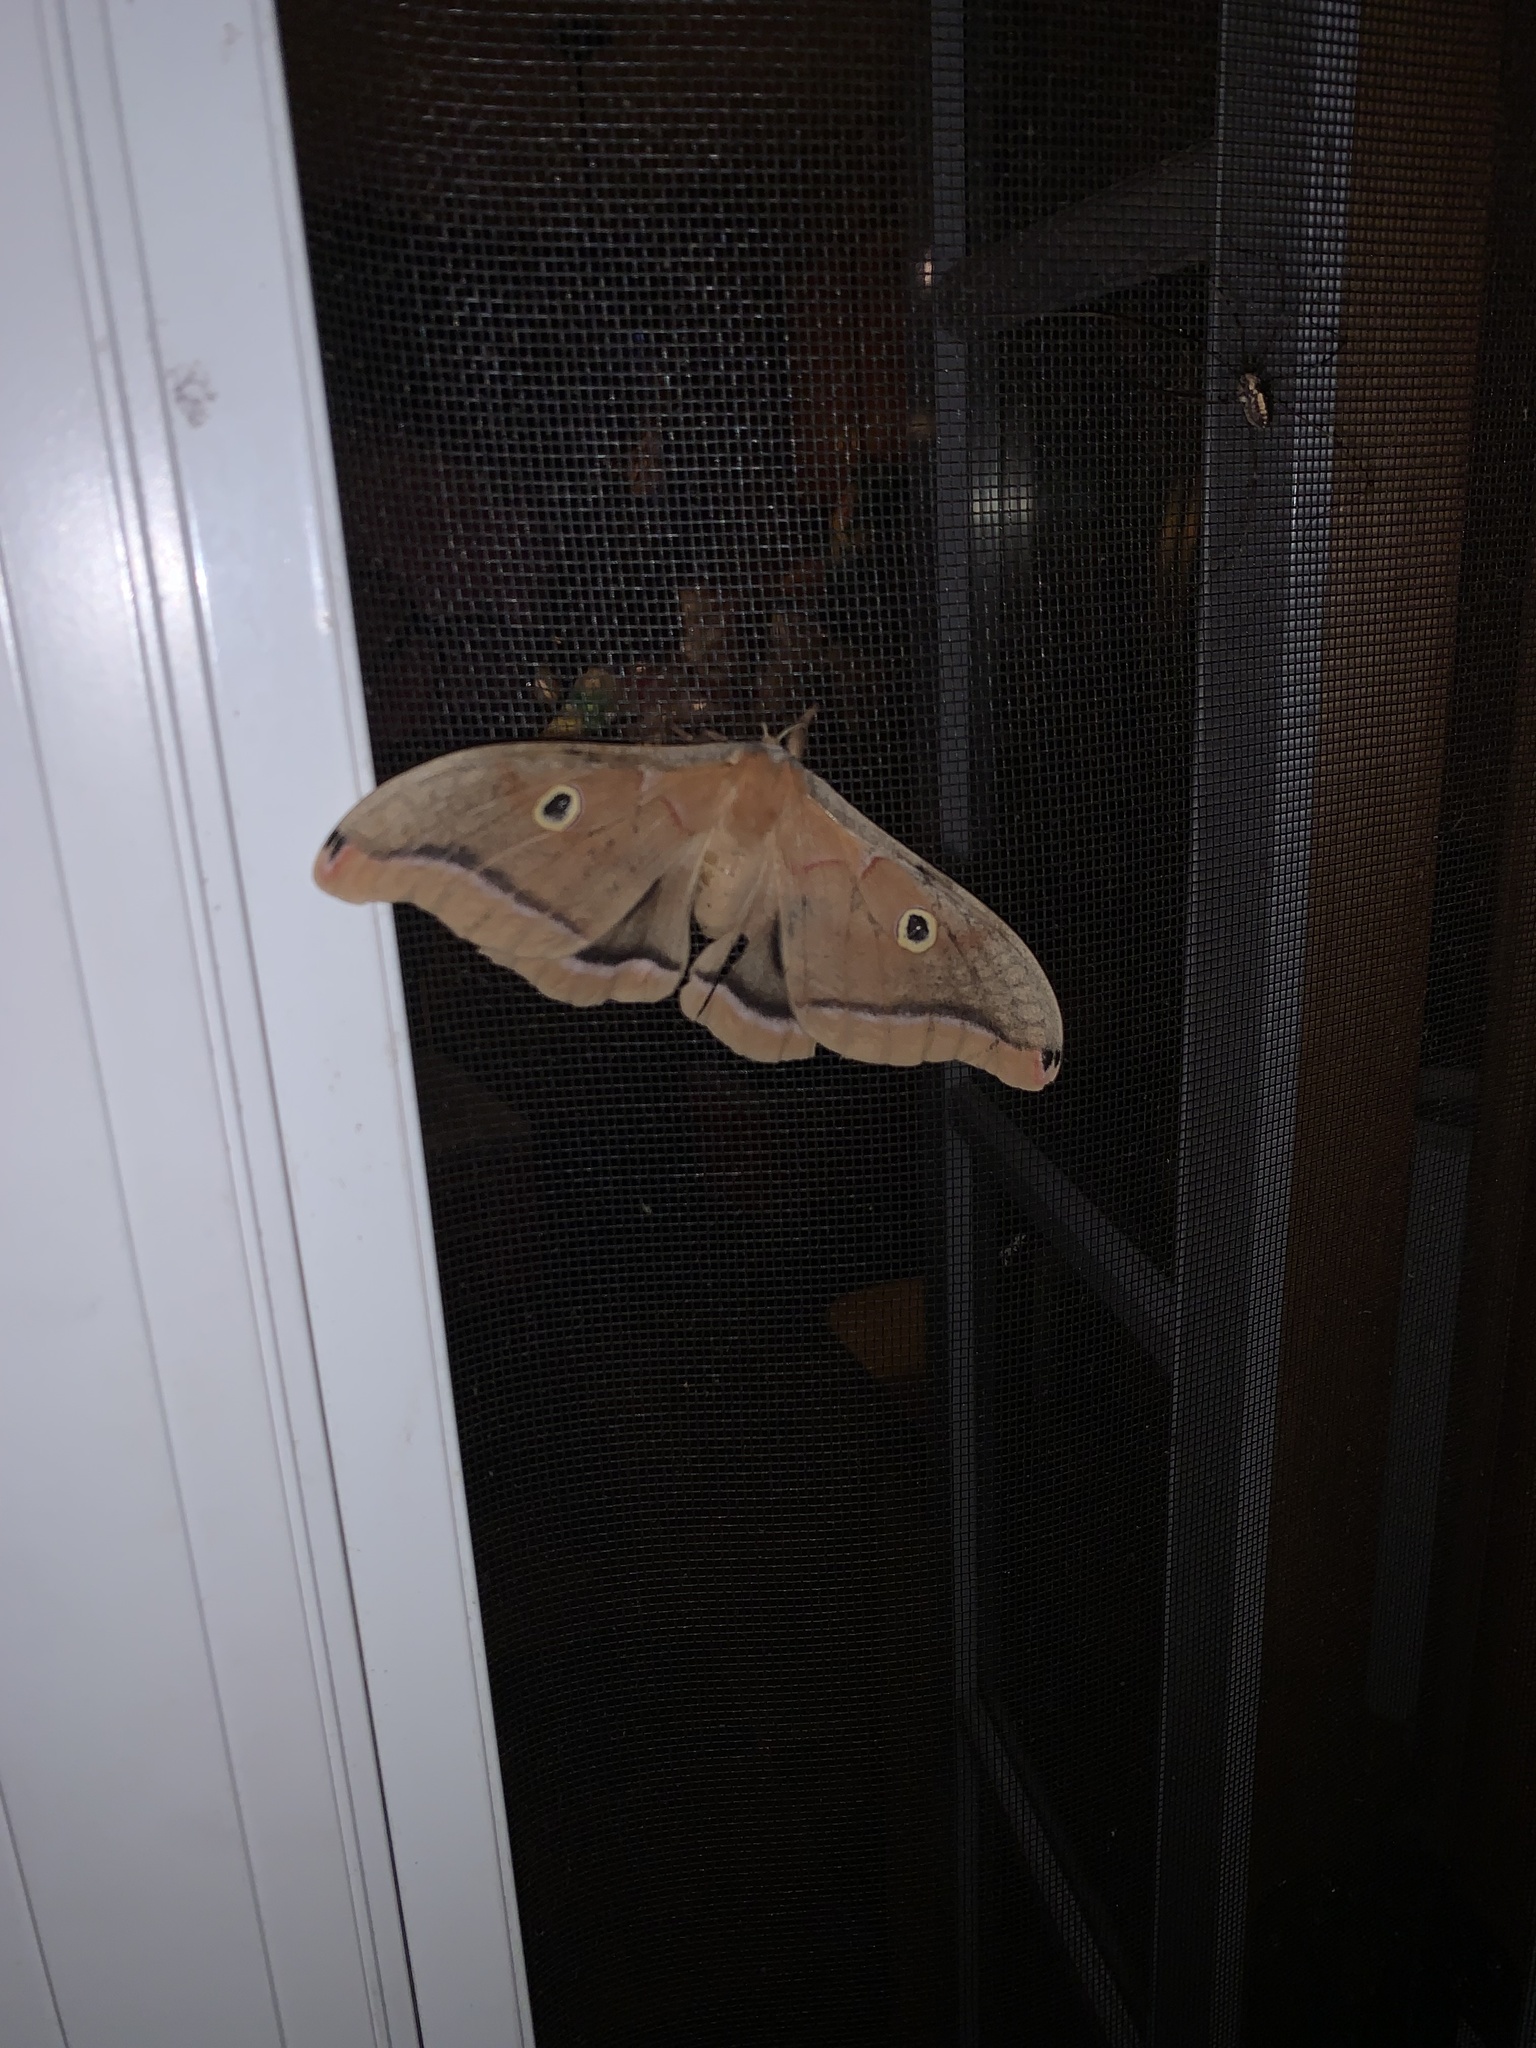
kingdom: Animalia
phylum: Arthropoda
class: Insecta
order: Lepidoptera
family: Saturniidae
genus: Antheraea
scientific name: Antheraea polyphemus
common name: Polyphemus moth
